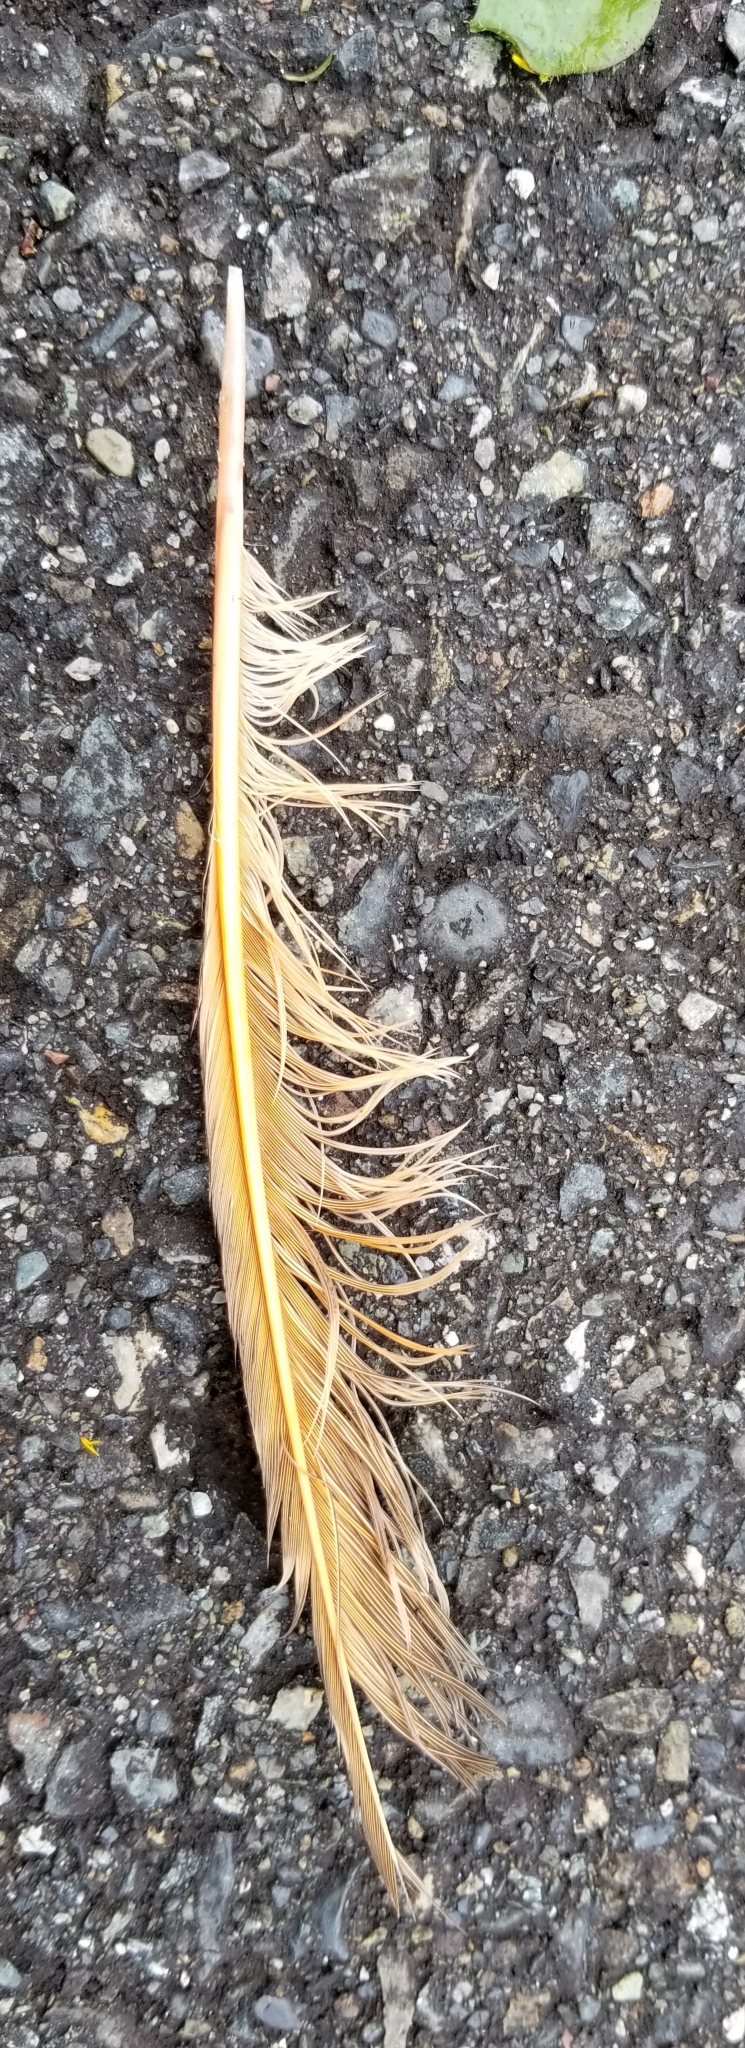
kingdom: Animalia
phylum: Chordata
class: Aves
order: Piciformes
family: Picidae
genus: Colaptes
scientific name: Colaptes auratus
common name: Northern flicker
